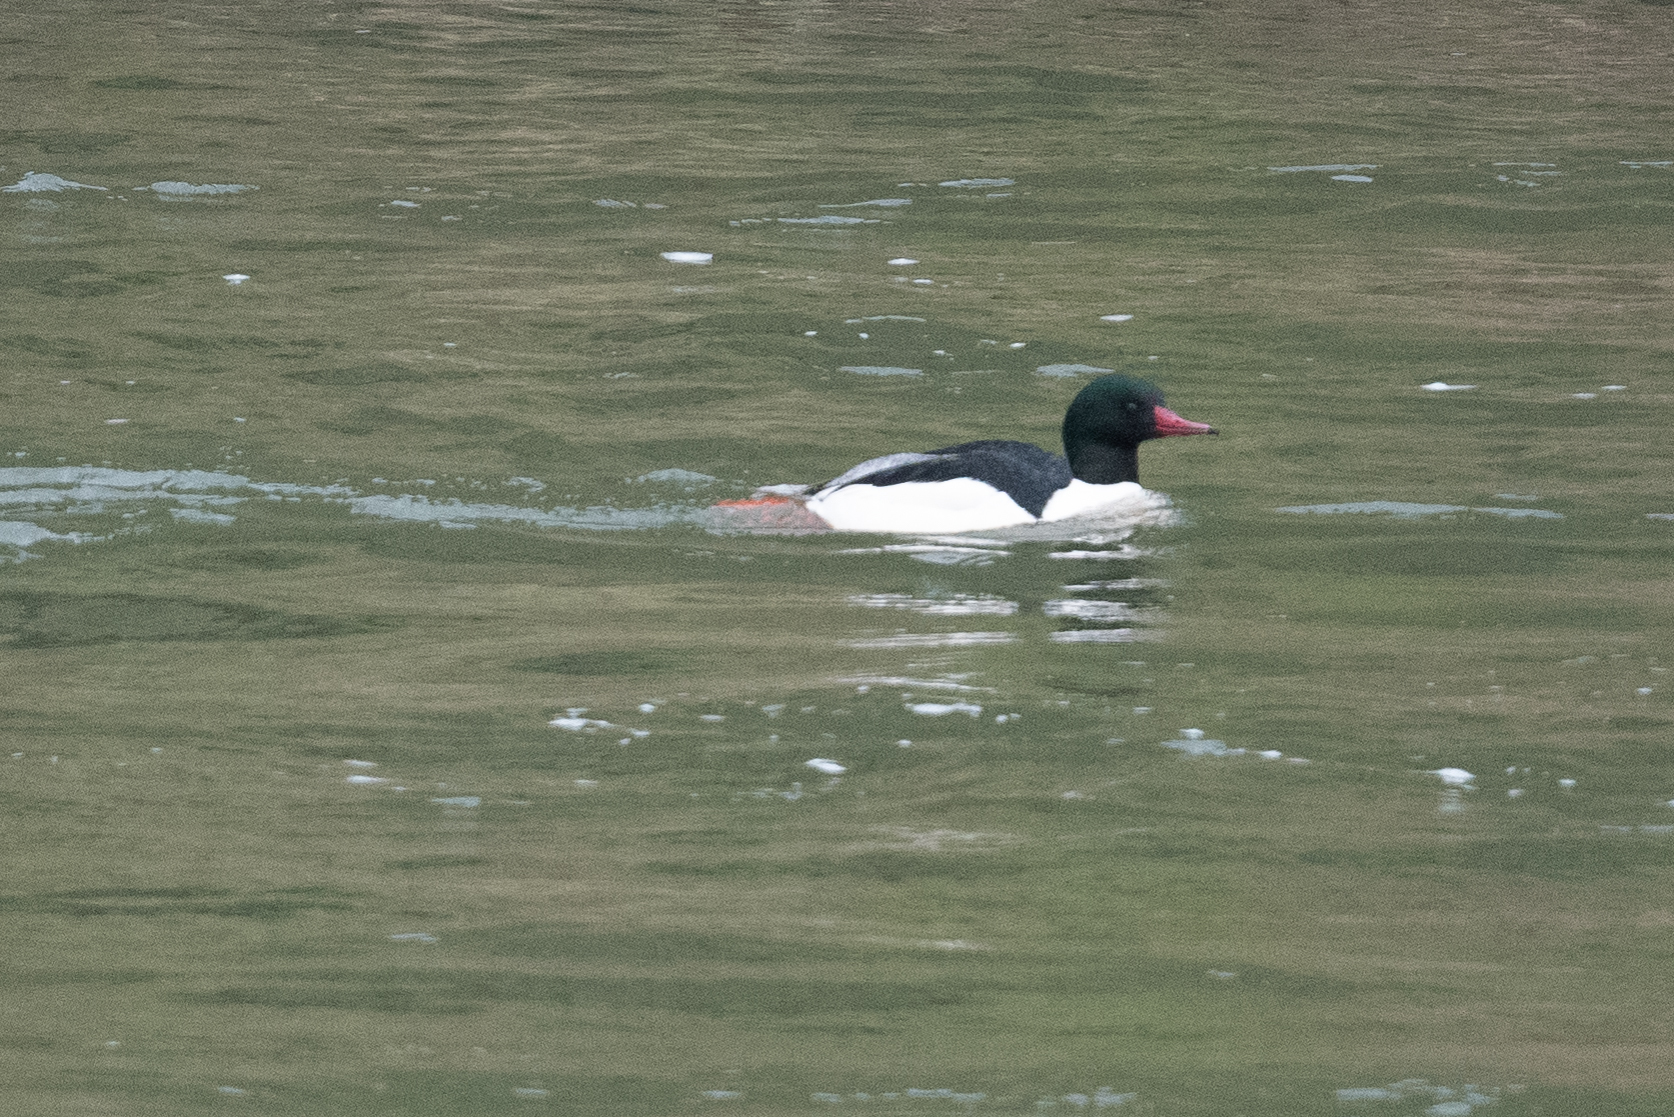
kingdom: Animalia
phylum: Chordata
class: Aves
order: Anseriformes
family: Anatidae
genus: Mergus
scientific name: Mergus merganser
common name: Common merganser
